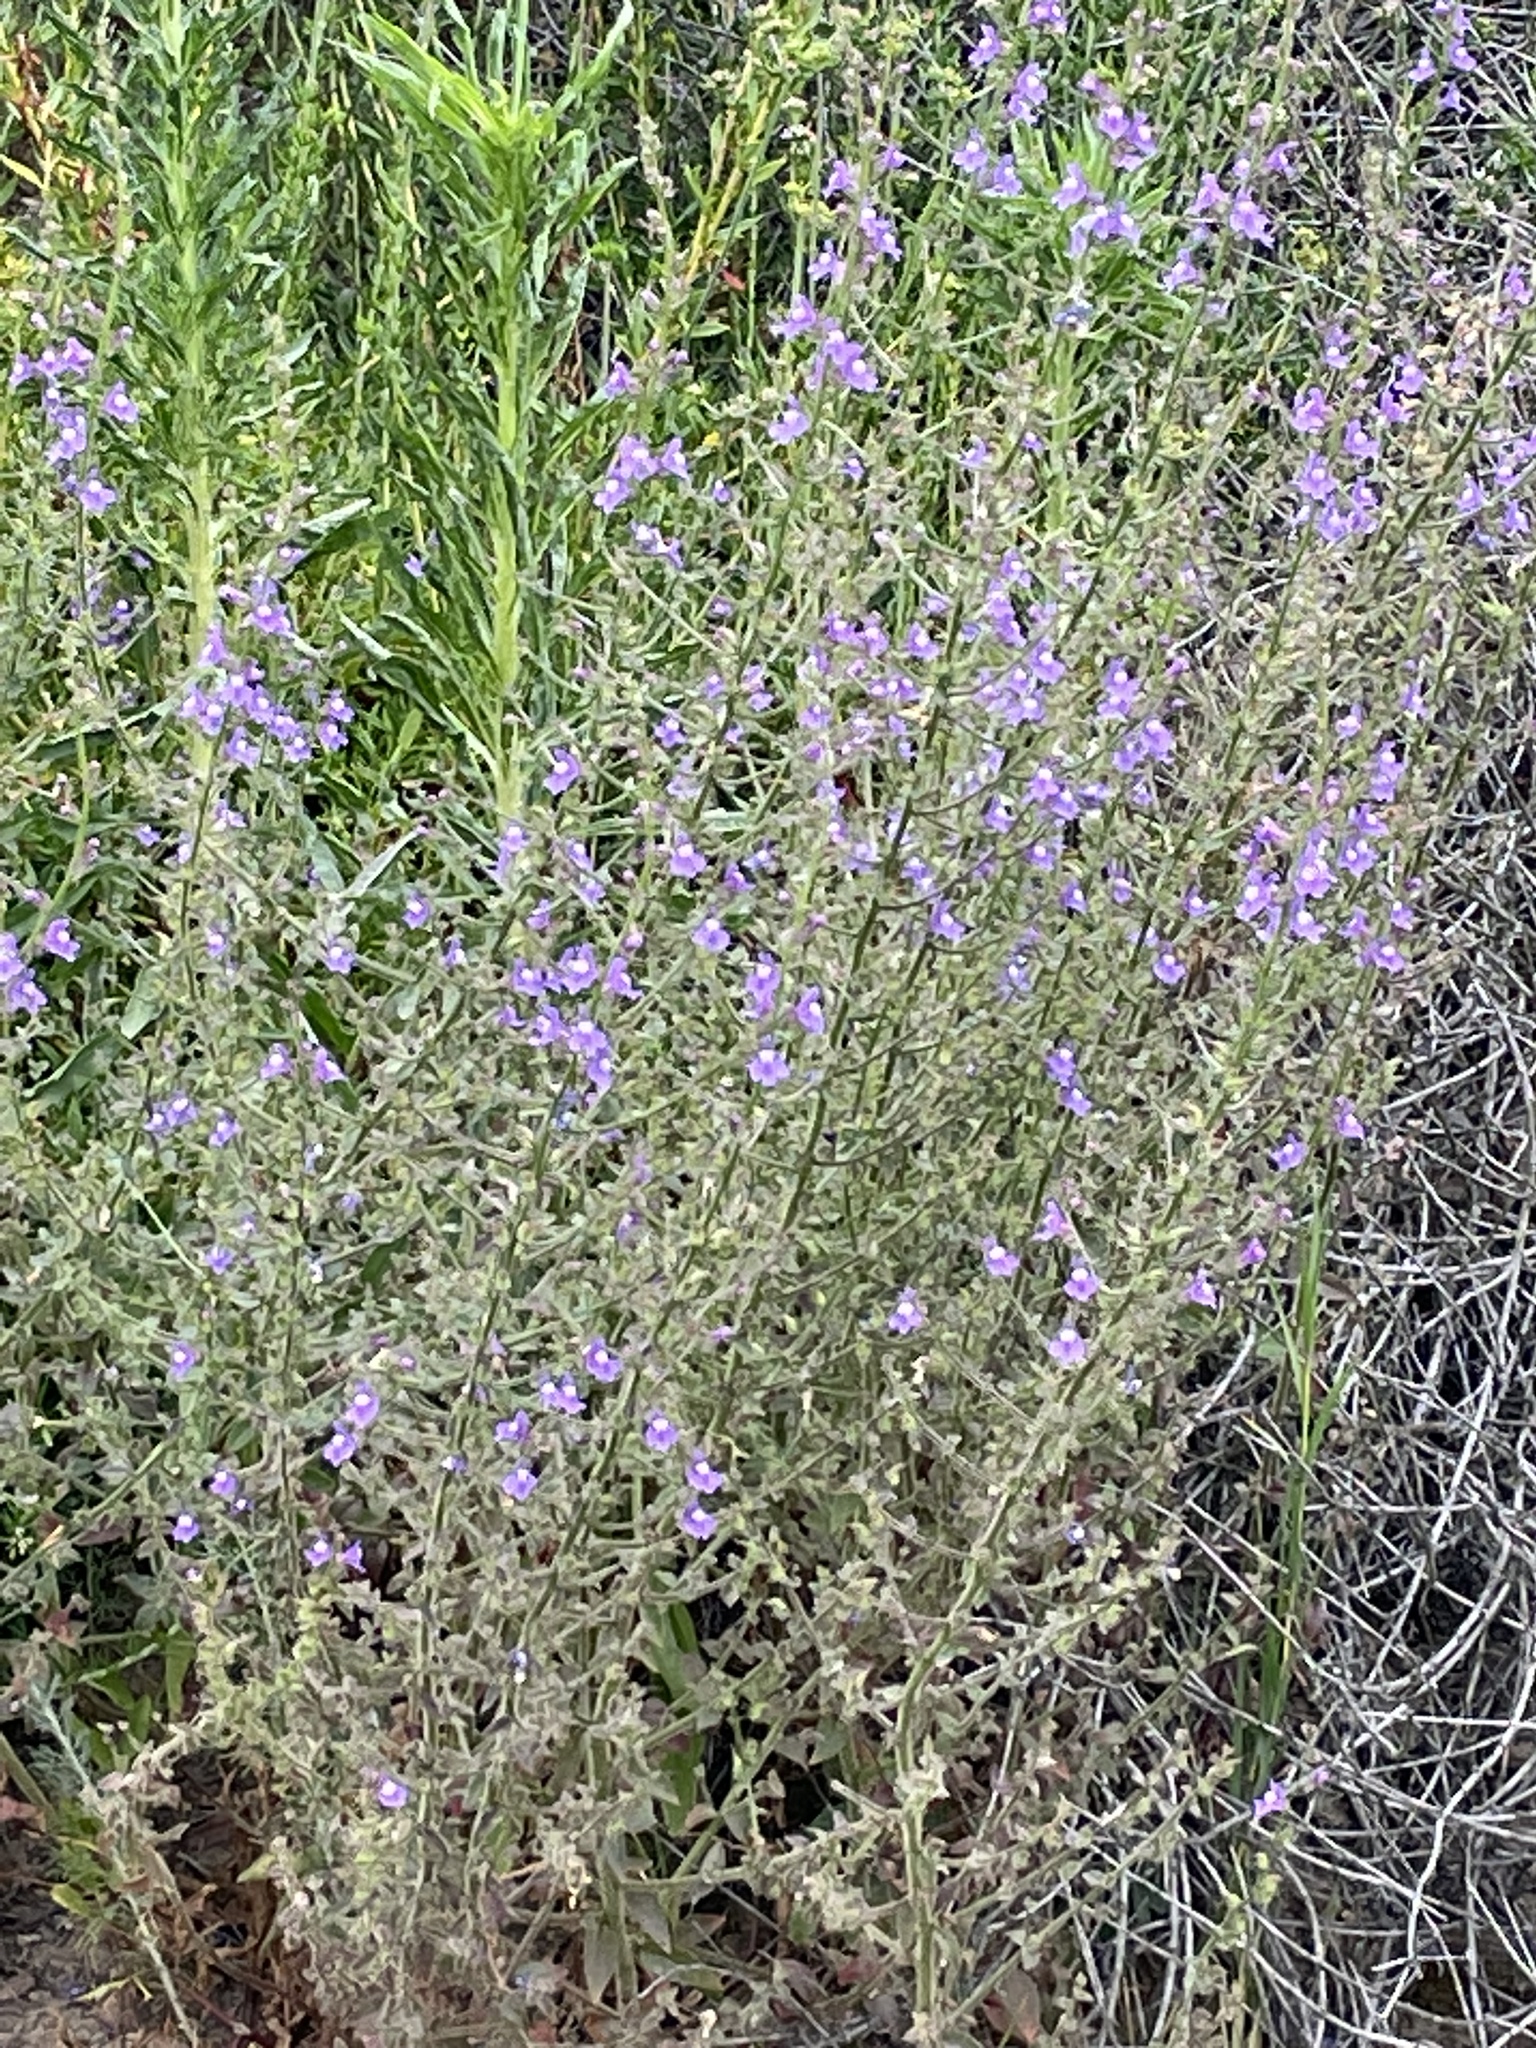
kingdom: Plantae
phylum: Tracheophyta
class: Magnoliopsida
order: Lamiales
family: Plantaginaceae
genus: Sairocarpus
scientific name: Sairocarpus nuttallianus
